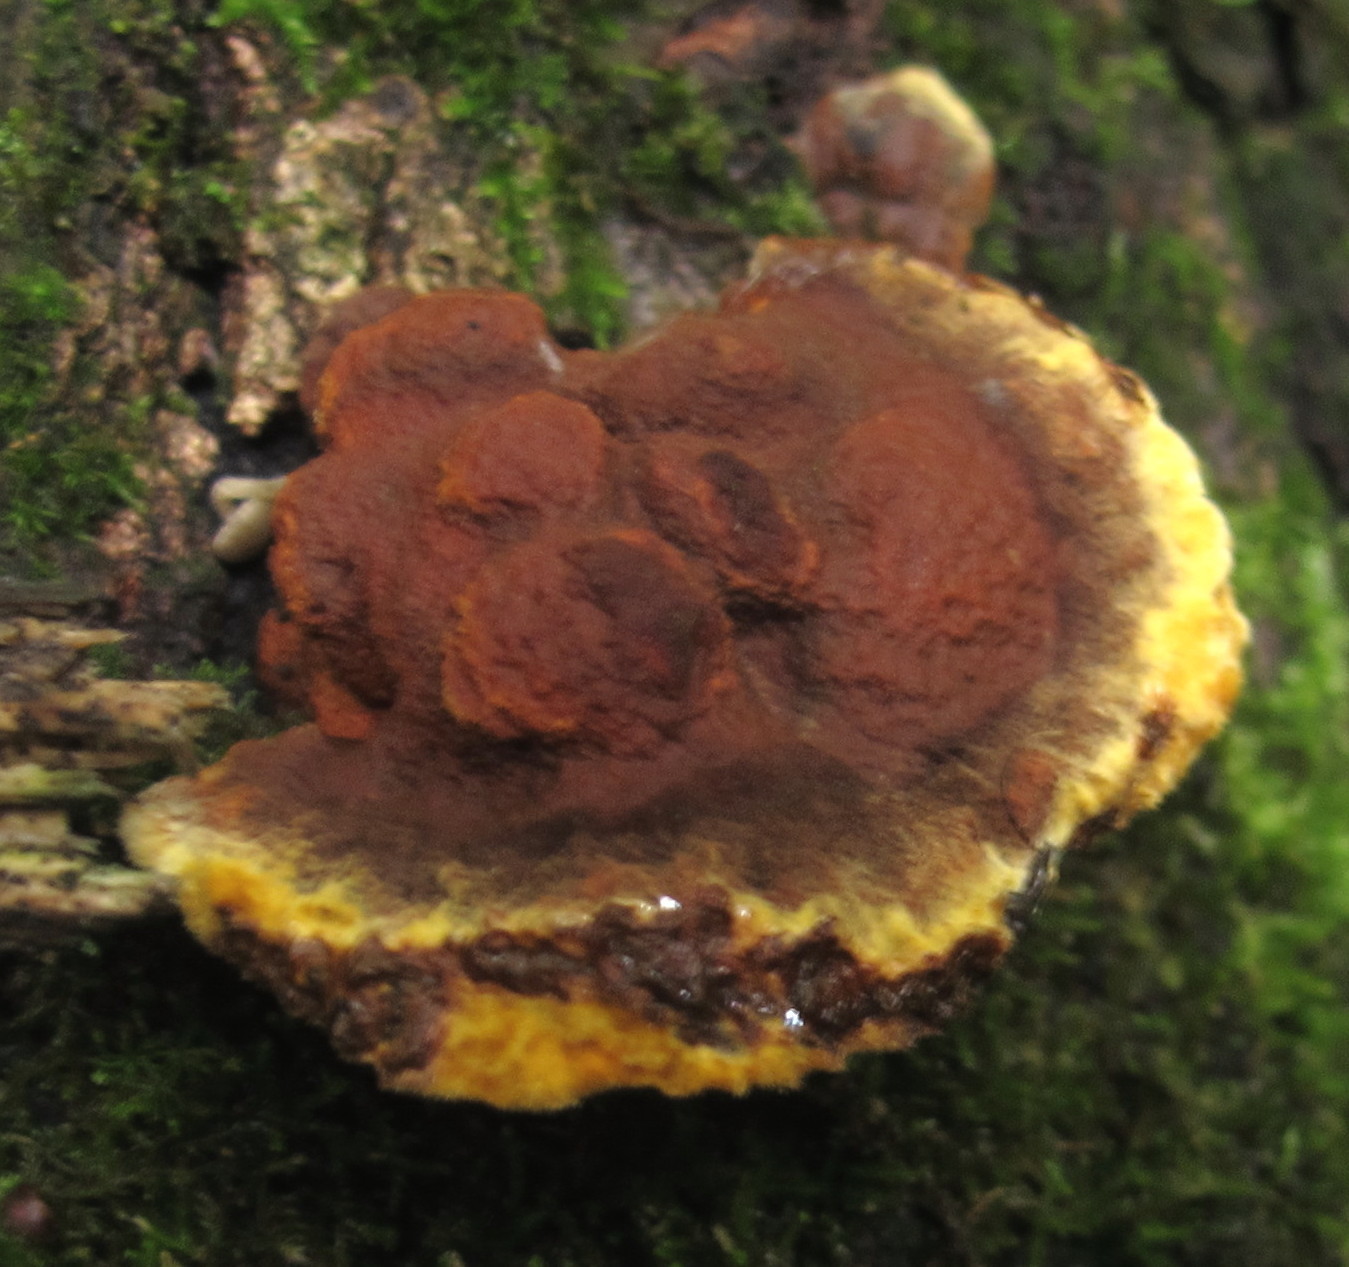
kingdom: Fungi
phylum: Basidiomycota
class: Agaricomycetes
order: Hymenochaetales
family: Hymenochaetaceae
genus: Phellinus
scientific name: Phellinus gilvus
